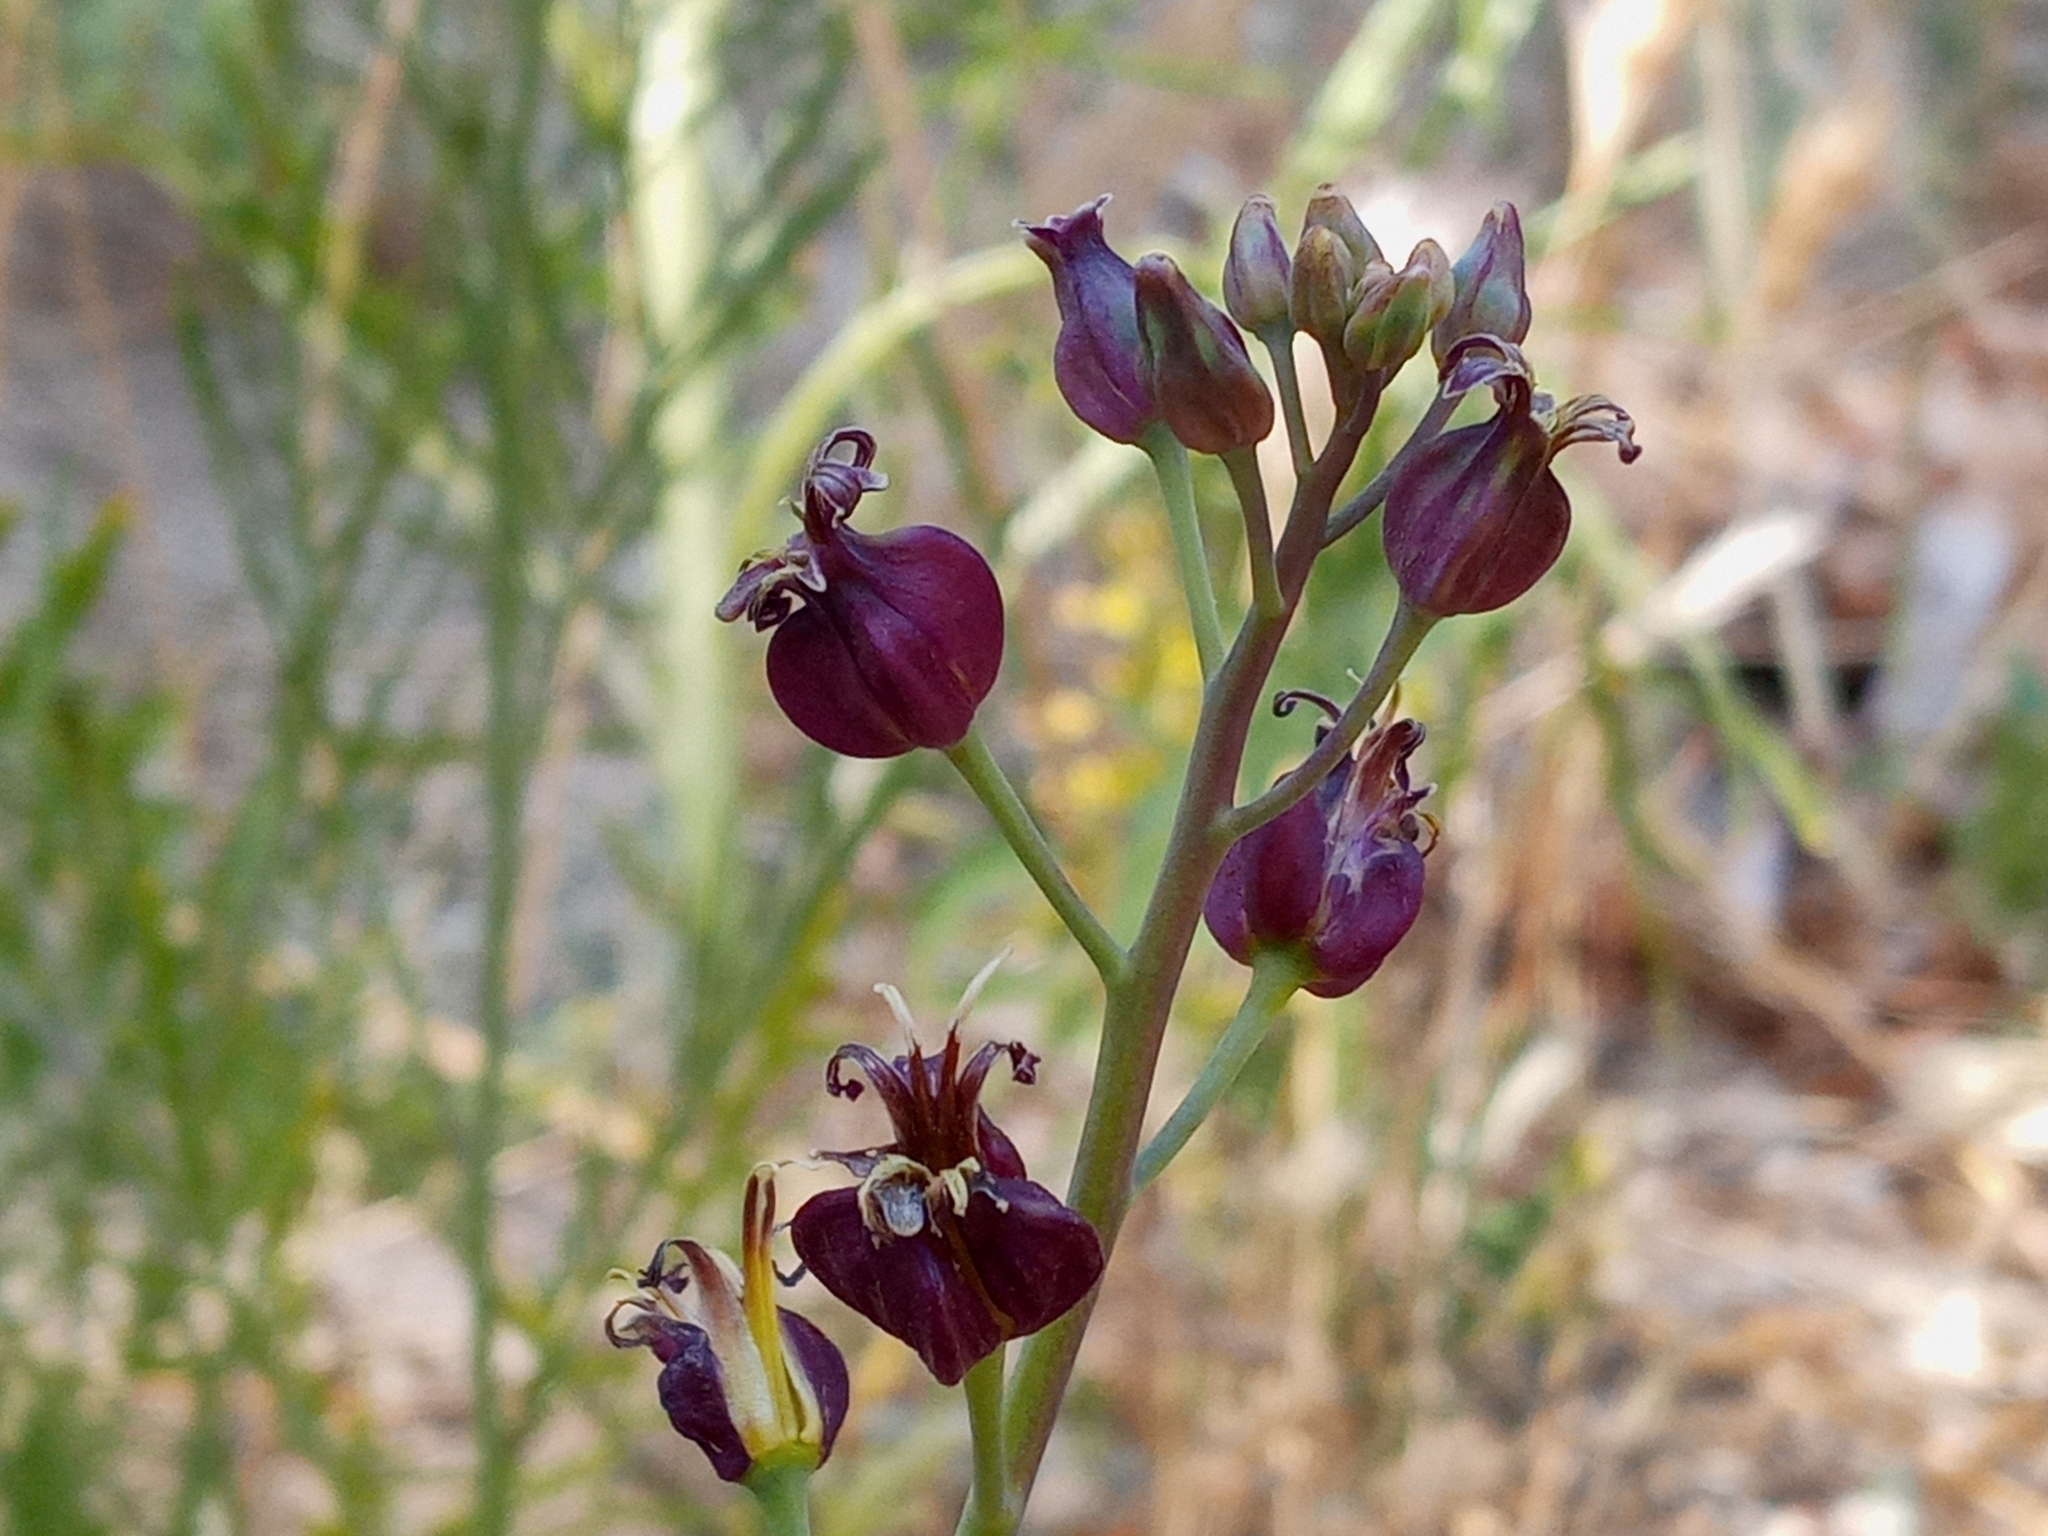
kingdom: Plantae
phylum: Tracheophyta
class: Magnoliopsida
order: Brassicales
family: Brassicaceae
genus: Streptanthus
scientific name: Streptanthus amplexicaulis
